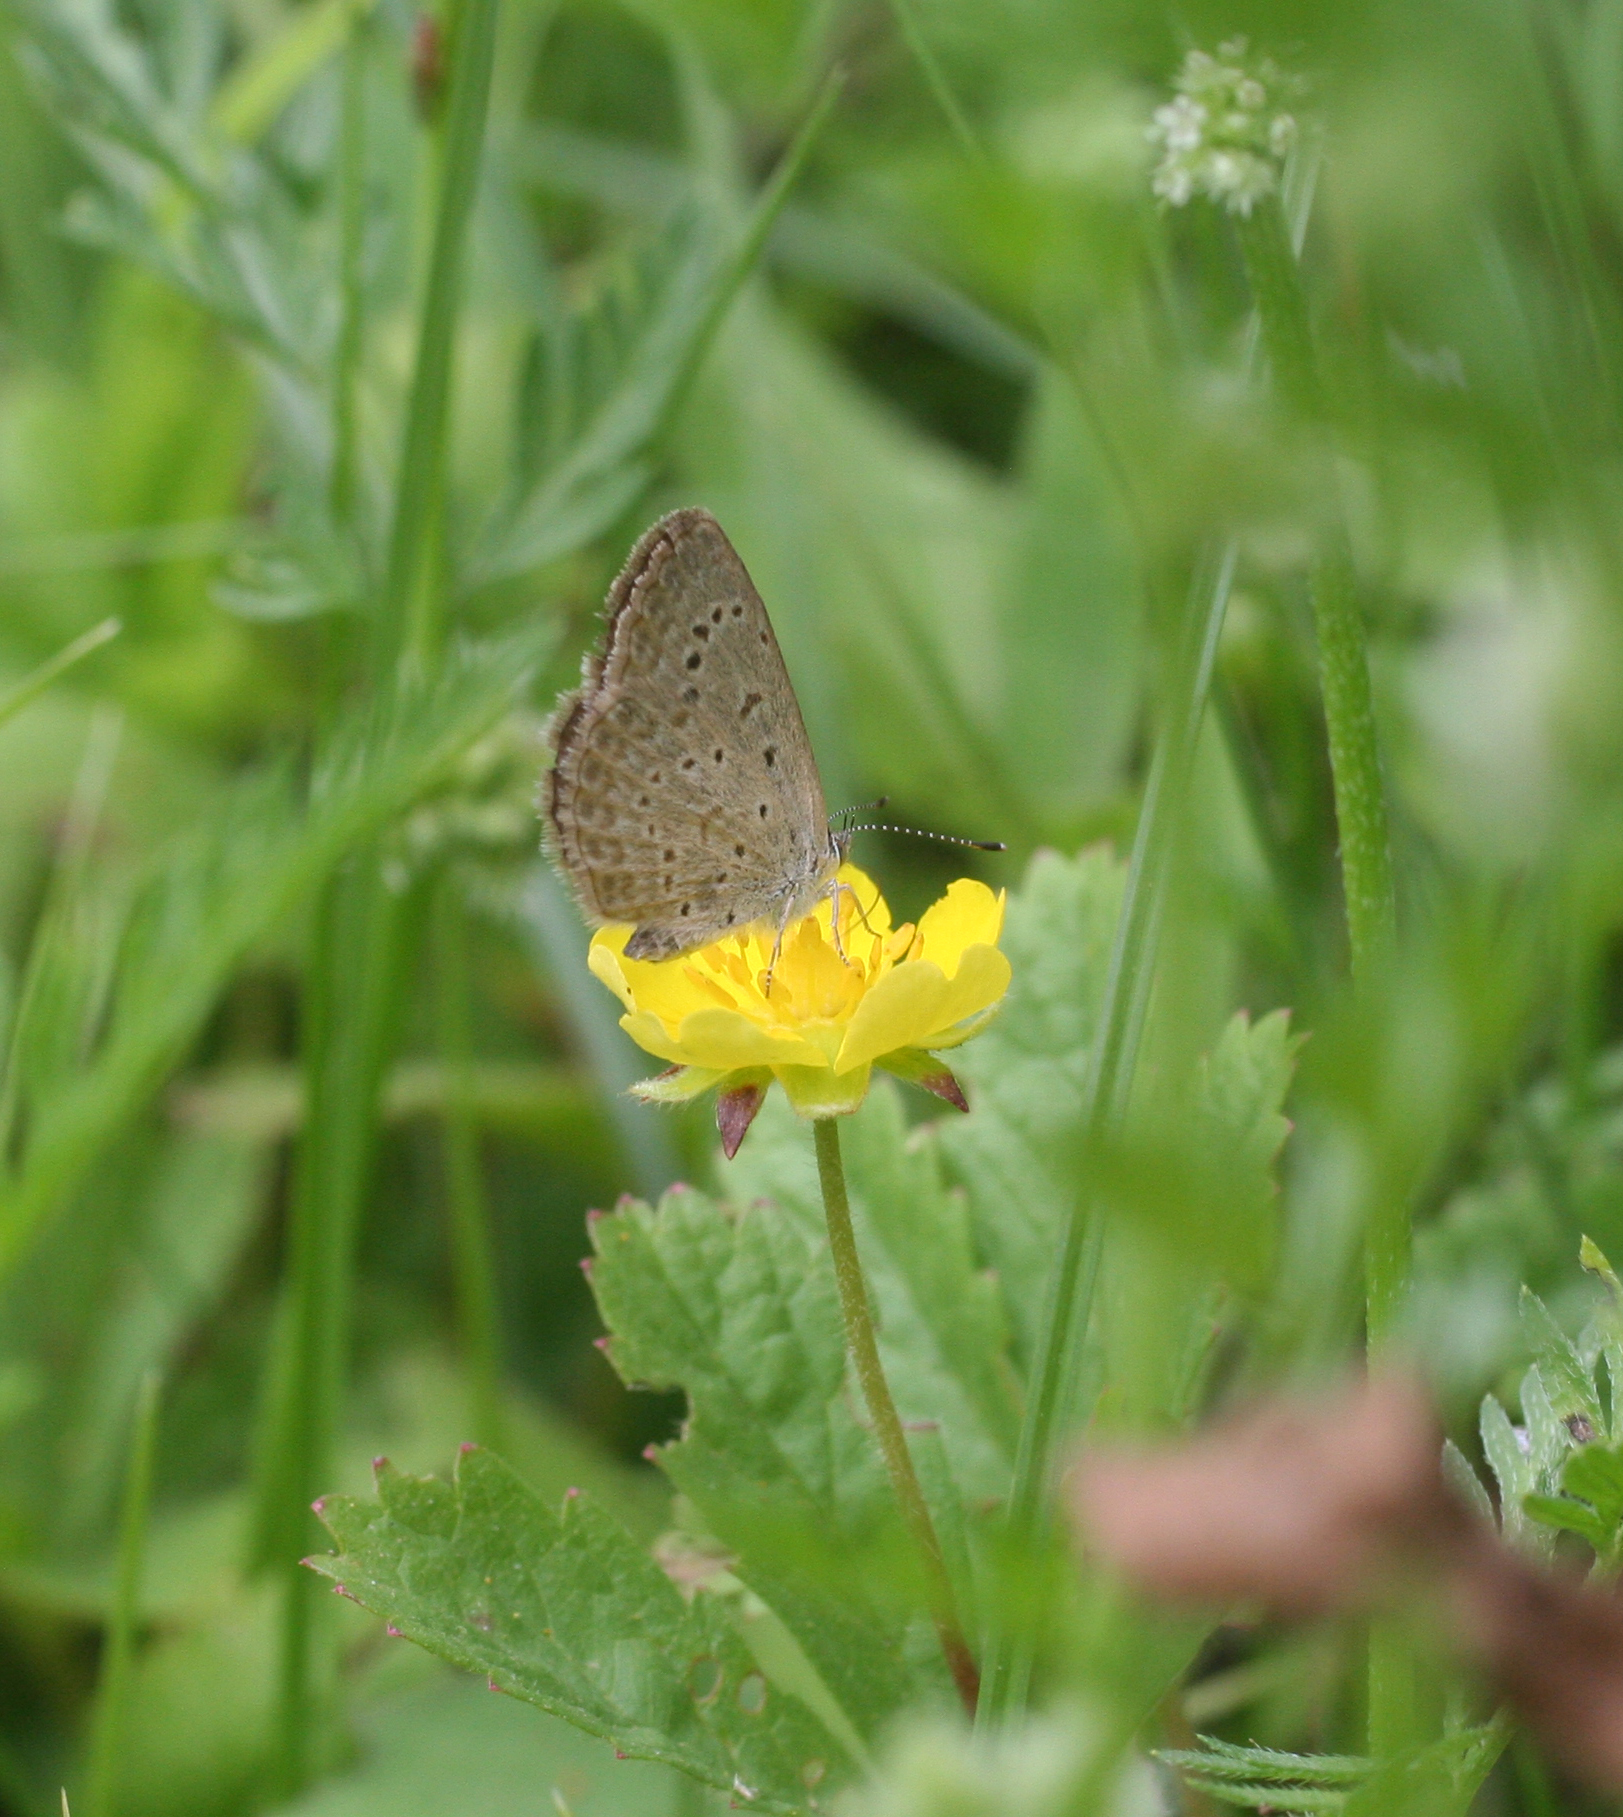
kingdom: Animalia
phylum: Arthropoda
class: Insecta
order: Lepidoptera
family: Lycaenidae
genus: Zizeeria
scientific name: Zizeeria knysna
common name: African grass blue
